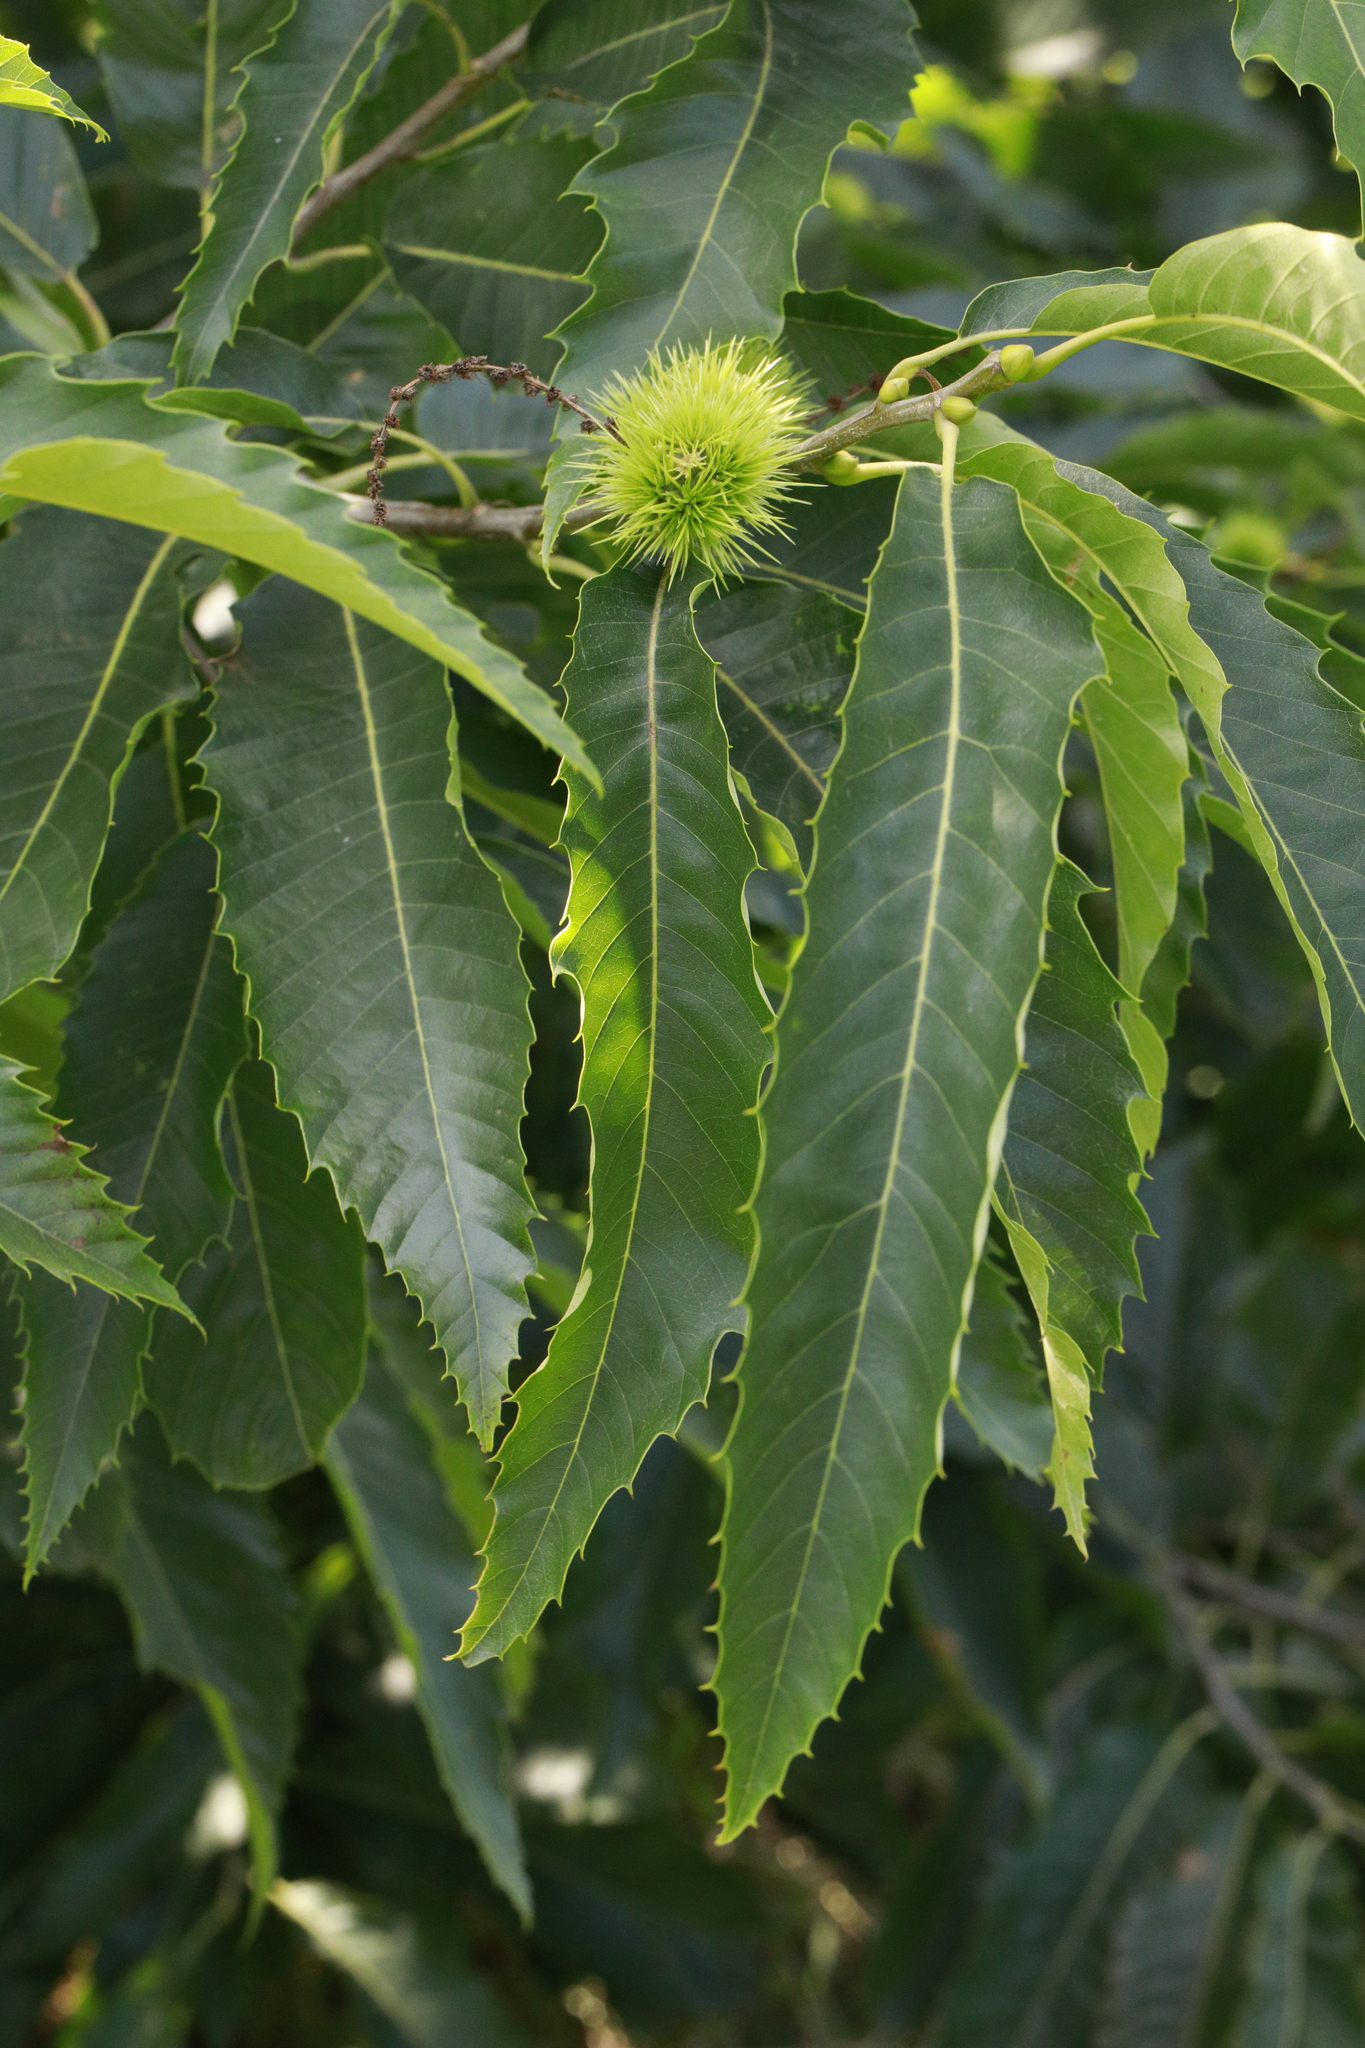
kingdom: Plantae
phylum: Tracheophyta
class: Magnoliopsida
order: Fagales
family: Fagaceae
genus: Castanea
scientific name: Castanea sativa
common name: Sweet chestnut
